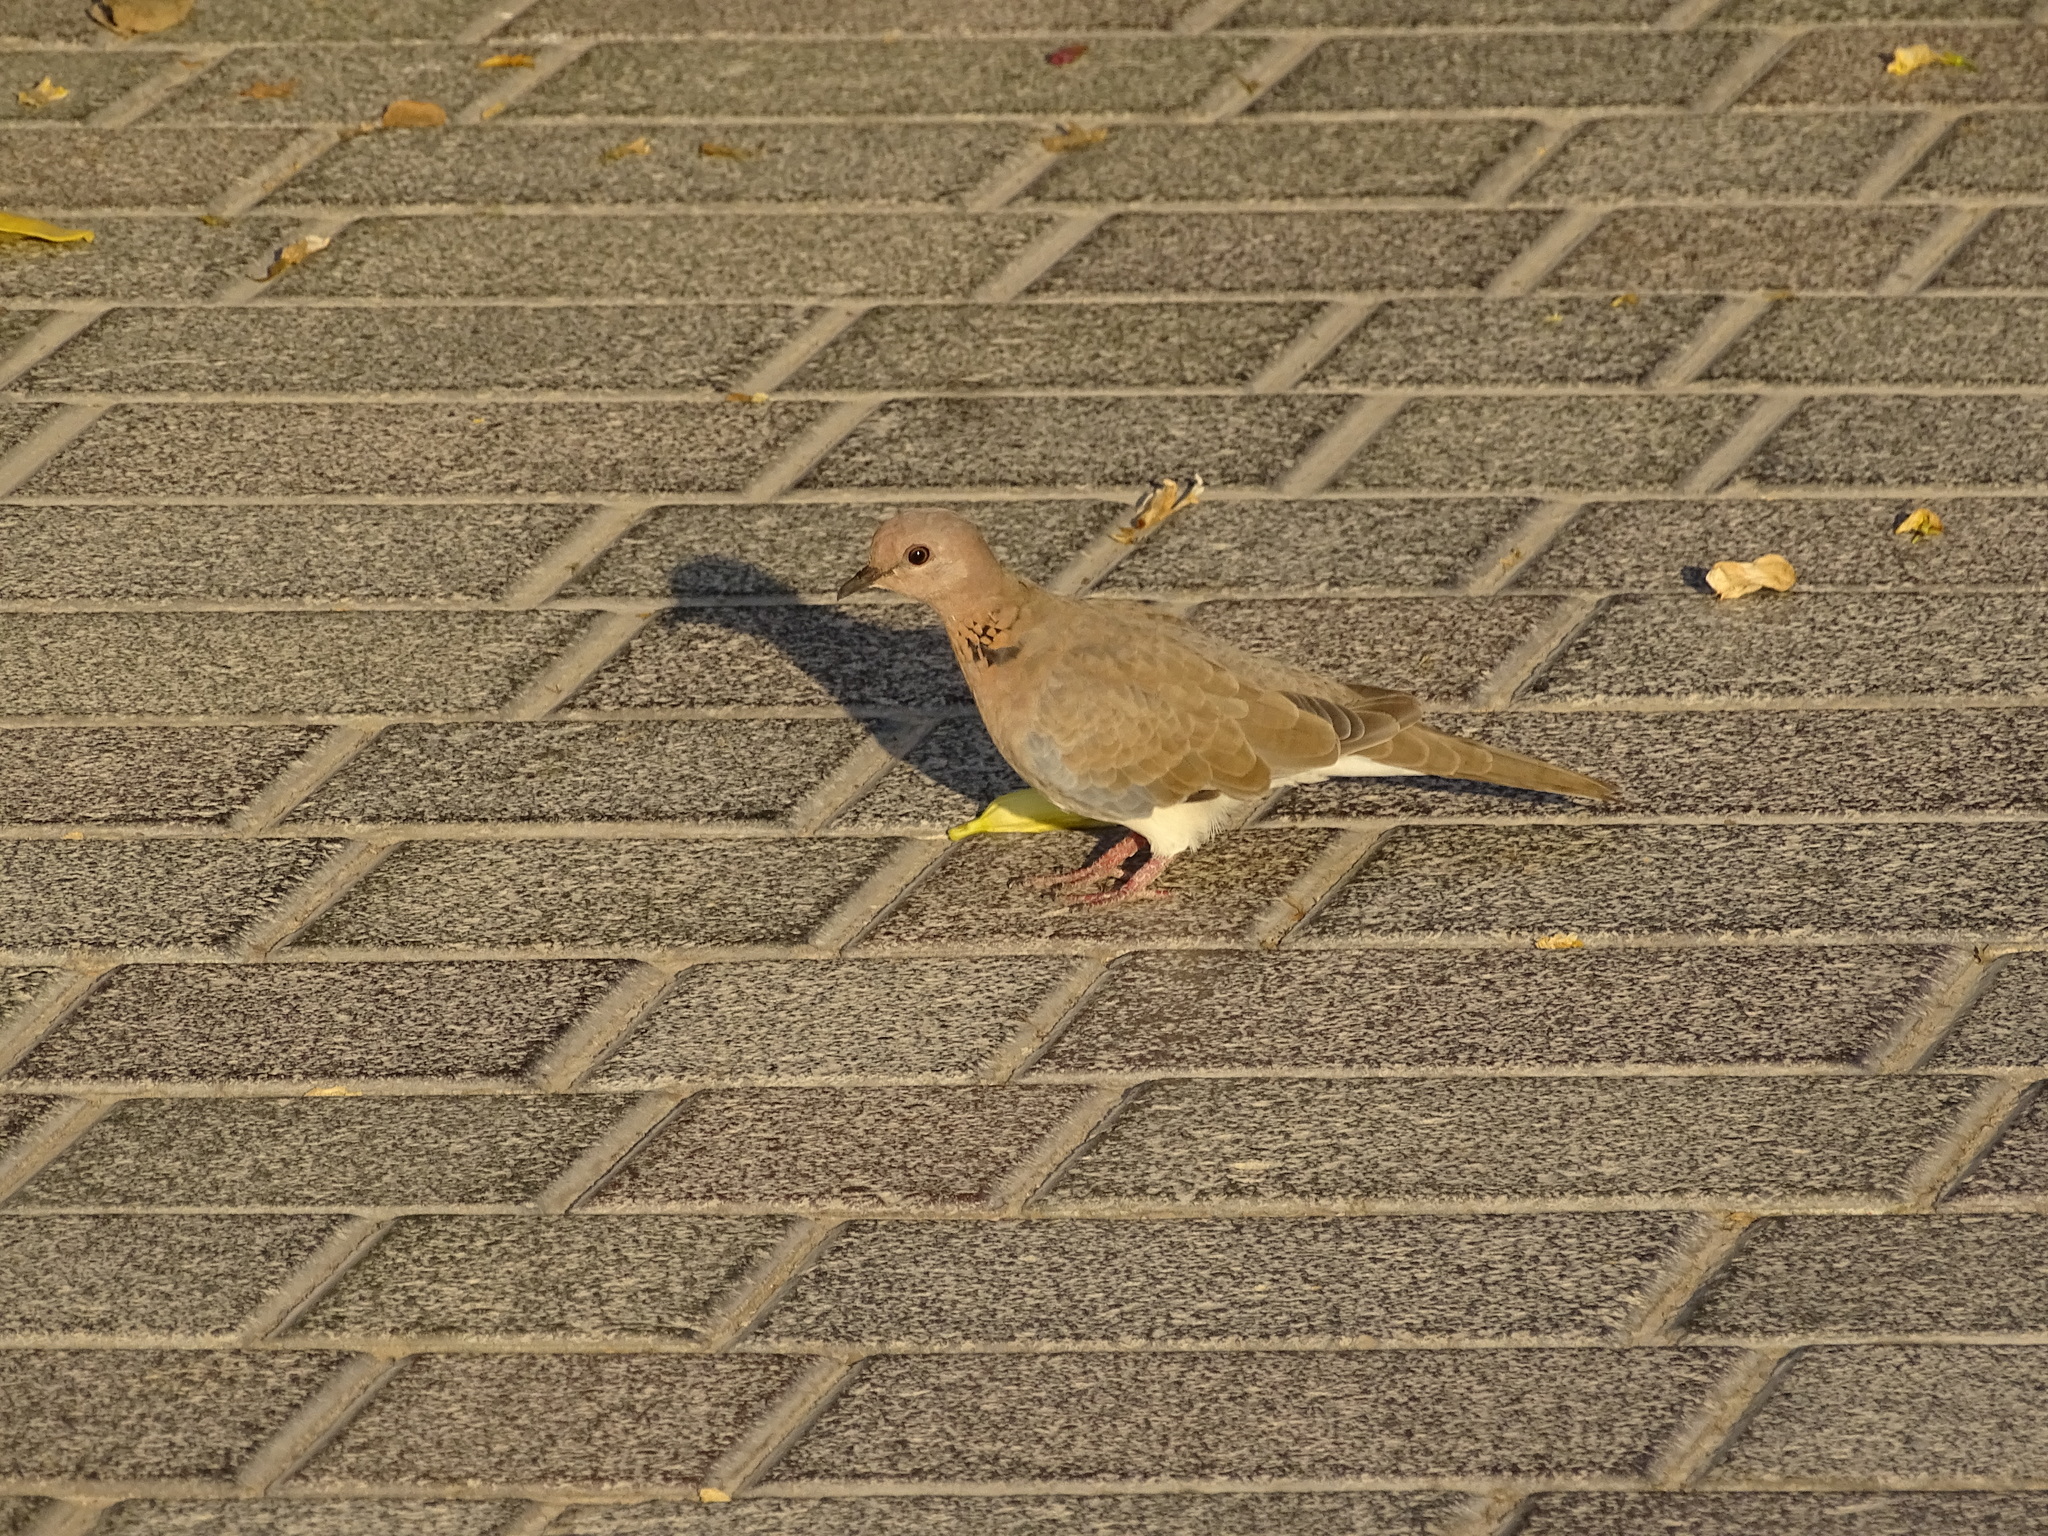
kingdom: Animalia
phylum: Chordata
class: Aves
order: Columbiformes
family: Columbidae
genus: Spilopelia
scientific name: Spilopelia senegalensis
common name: Laughing dove
